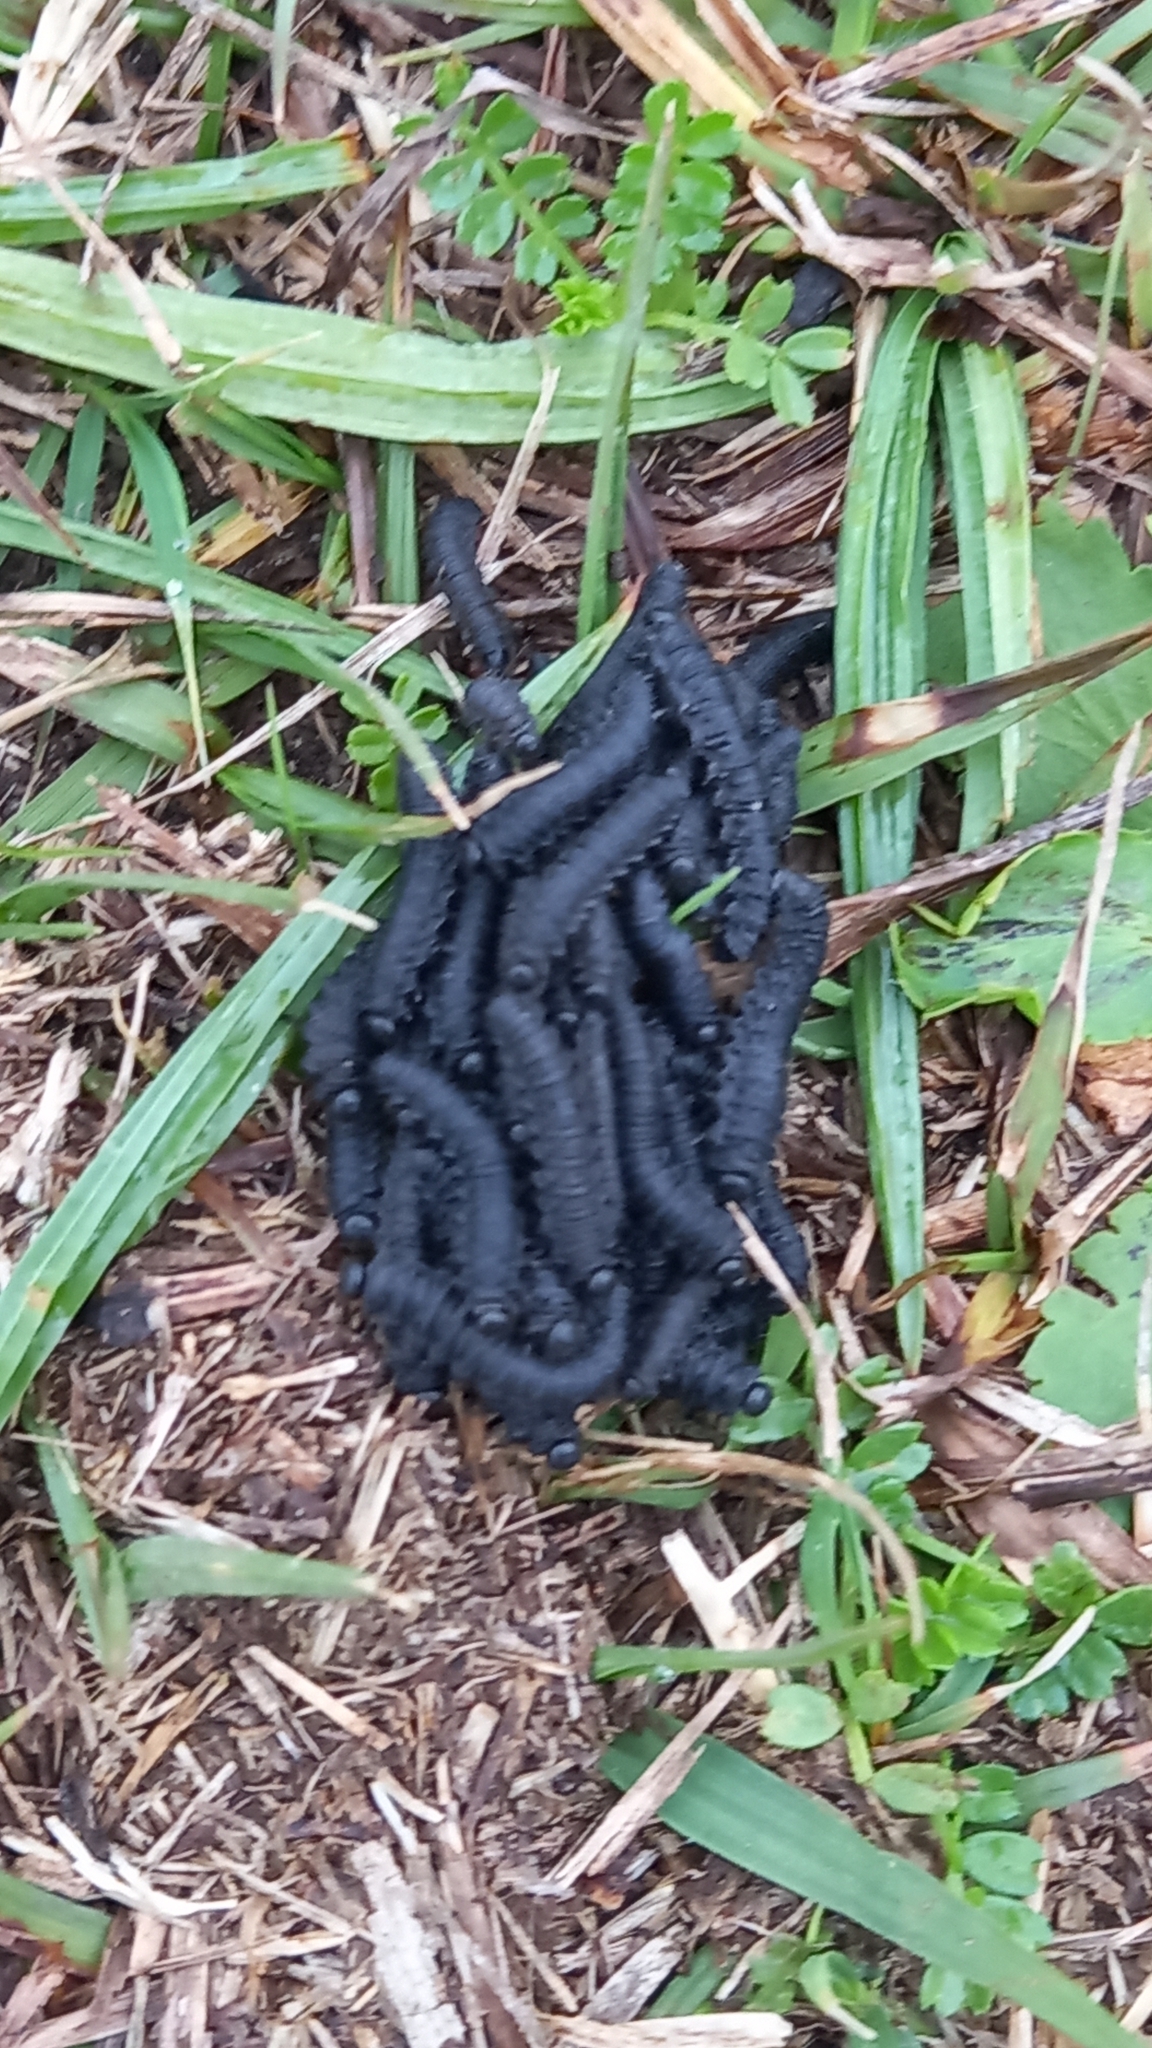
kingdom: Animalia
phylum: Arthropoda
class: Insecta
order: Hymenoptera
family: Pergidae
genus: Perreyia
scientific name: Perreyia
